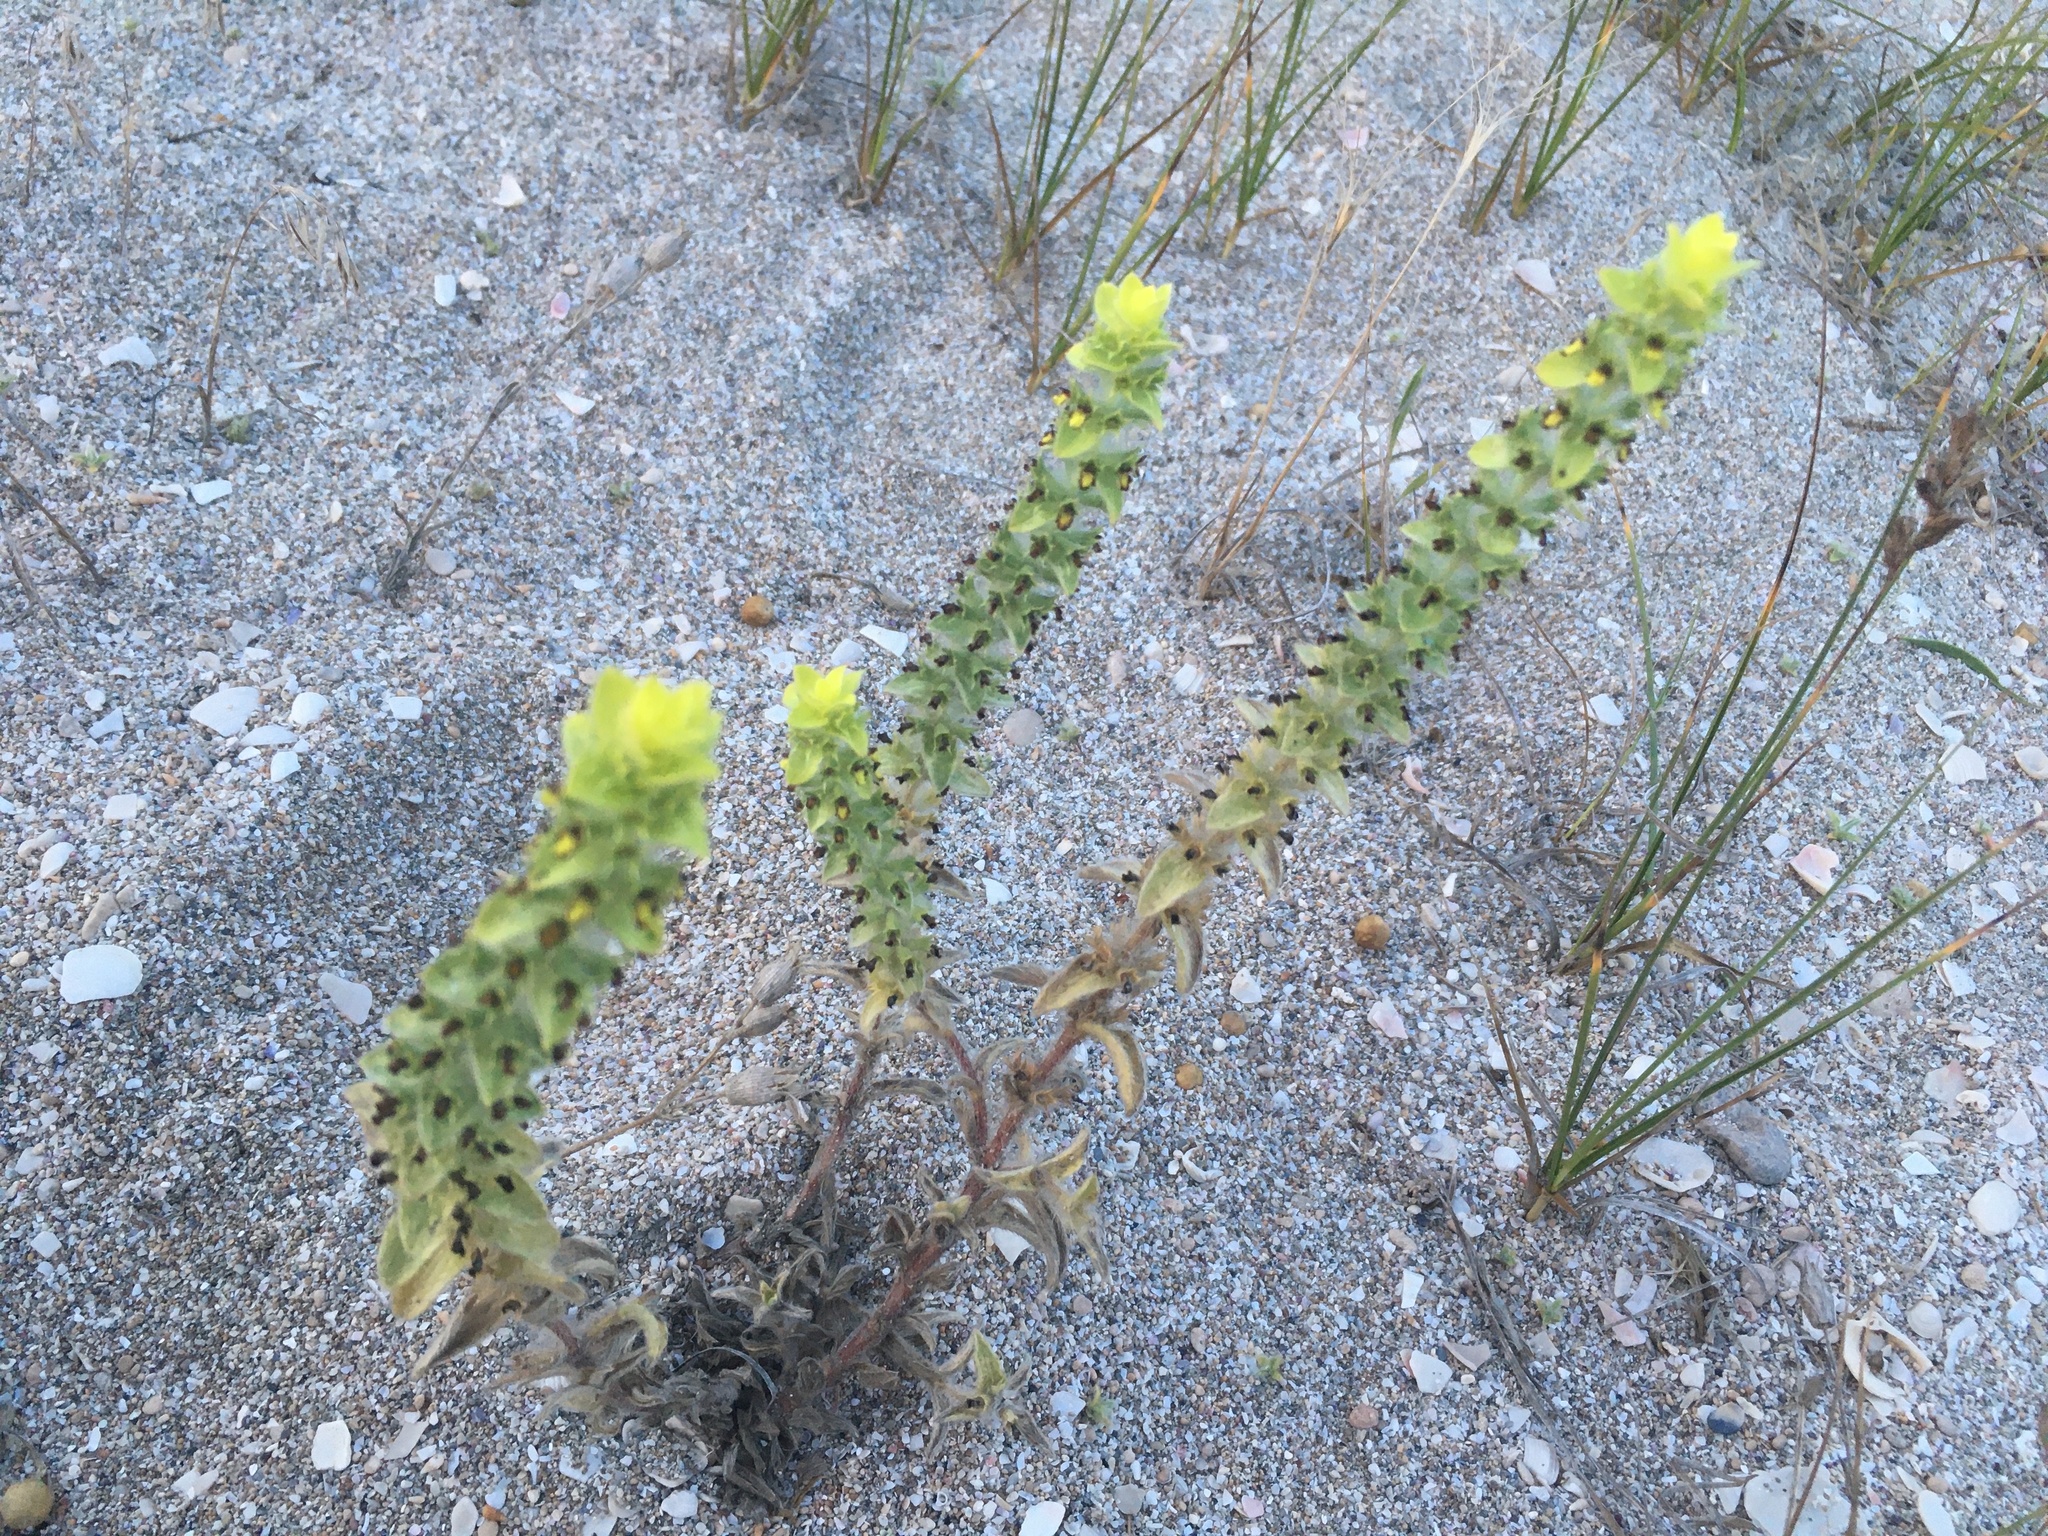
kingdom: Plantae
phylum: Tracheophyta
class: Magnoliopsida
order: Lamiales
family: Lamiaceae
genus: Sideritis
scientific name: Sideritis montana
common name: Mountain ironwort
